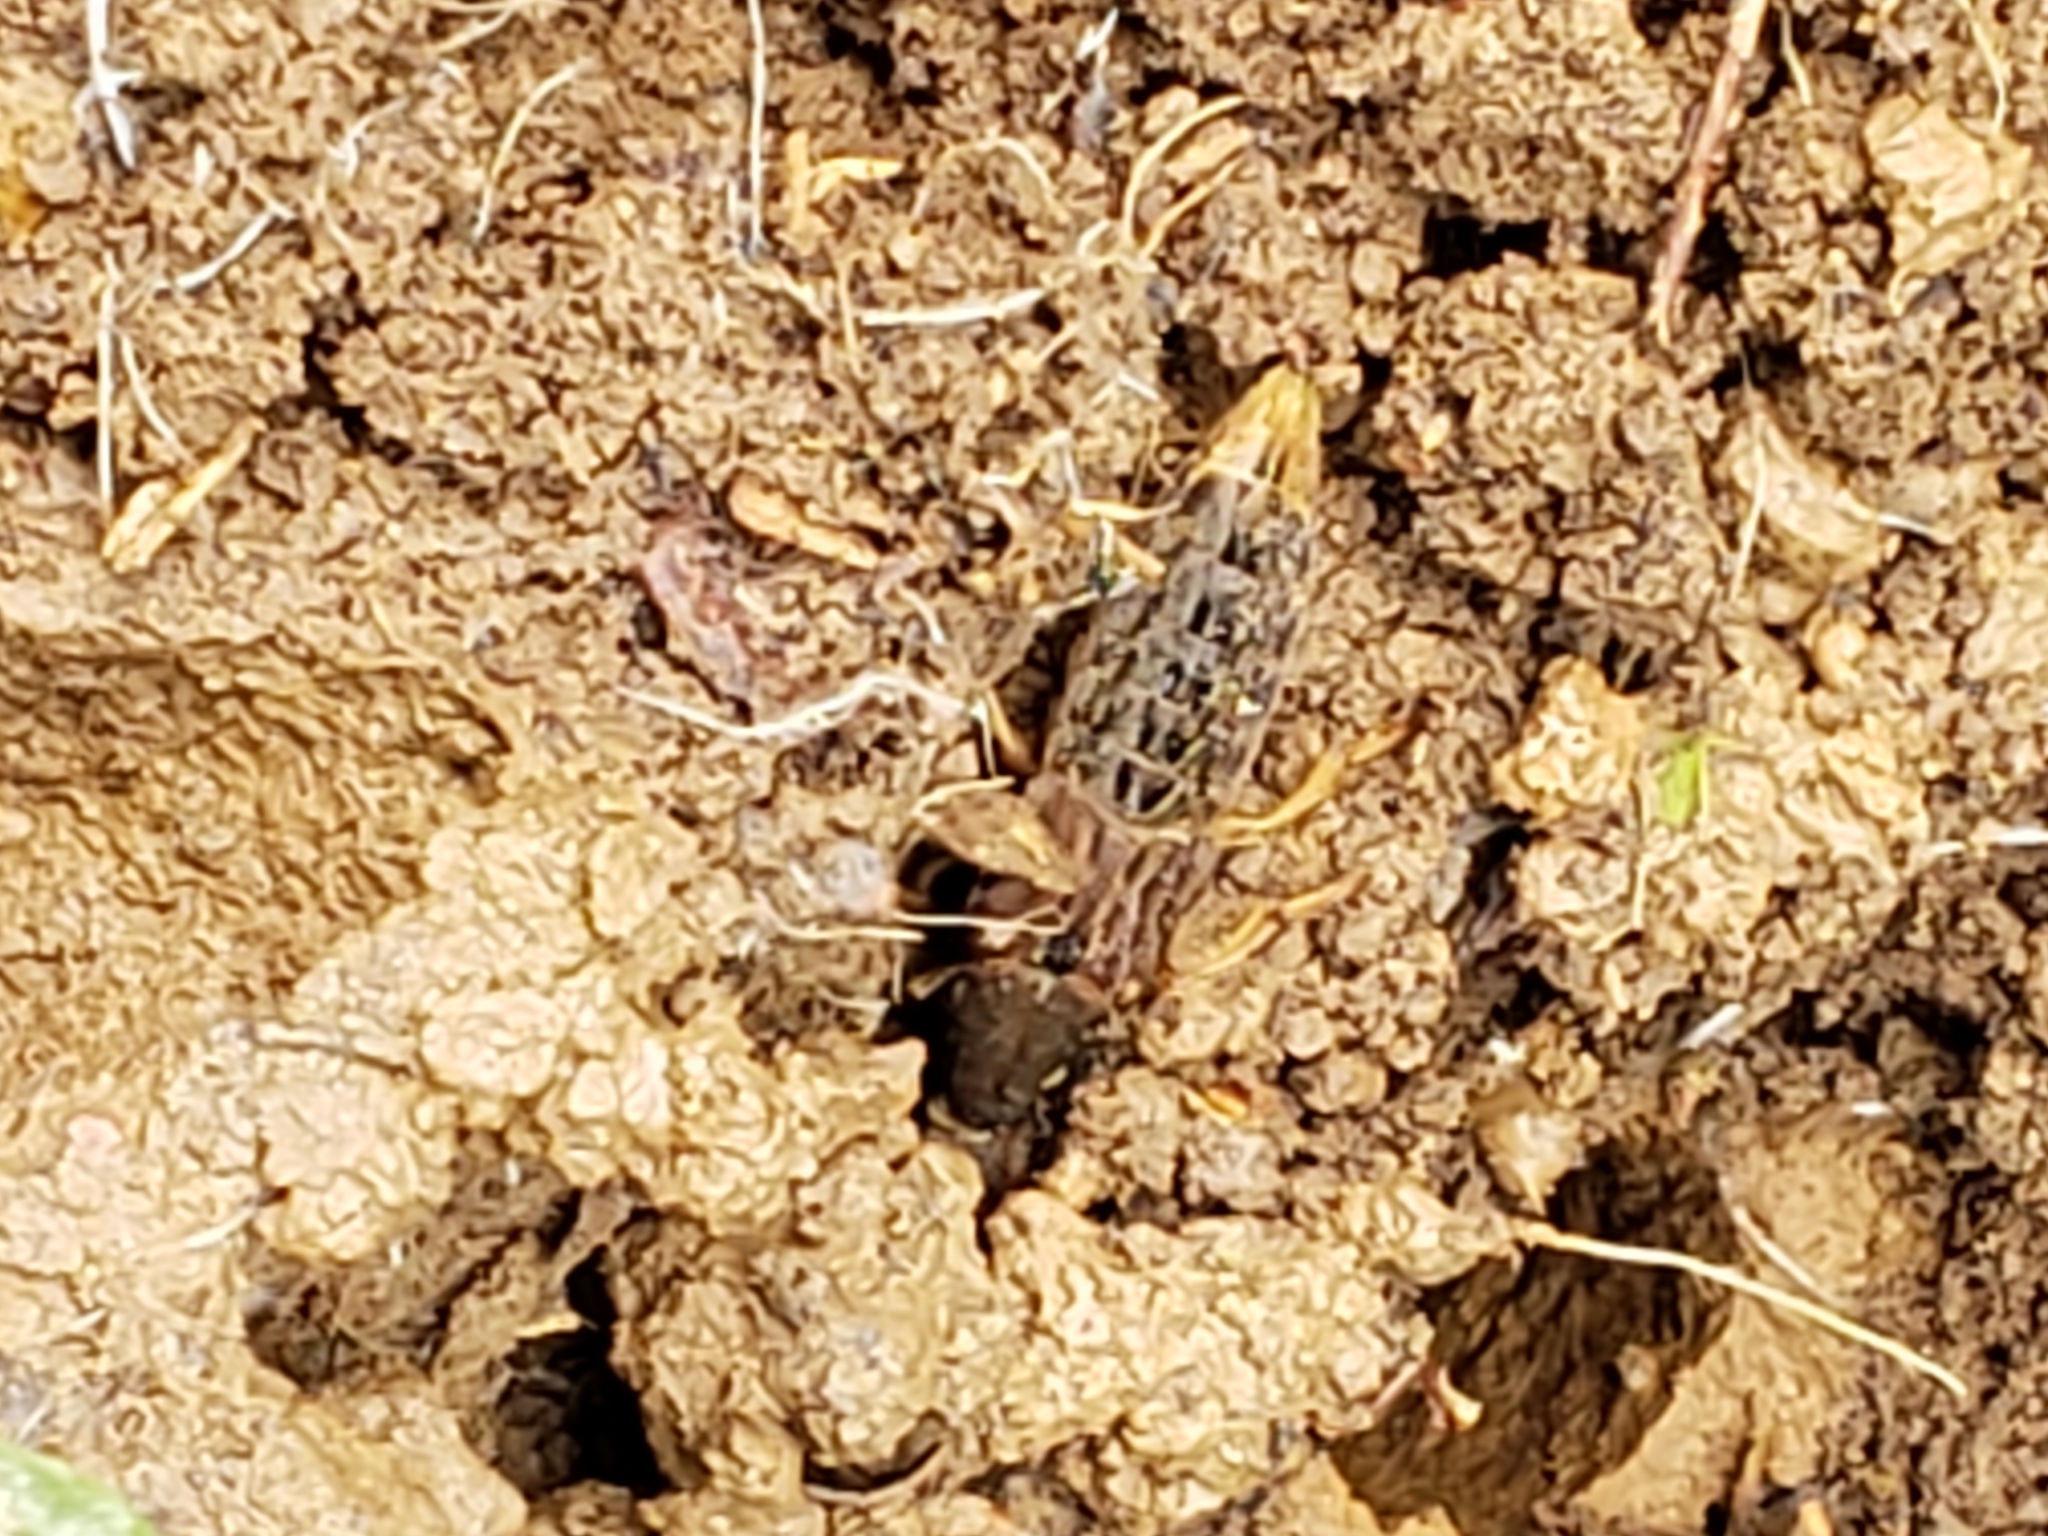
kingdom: Animalia
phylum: Arthropoda
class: Insecta
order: Coleoptera
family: Staphylinidae
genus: Platydracus
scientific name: Platydracus maculosus
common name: Brown rove beetle
